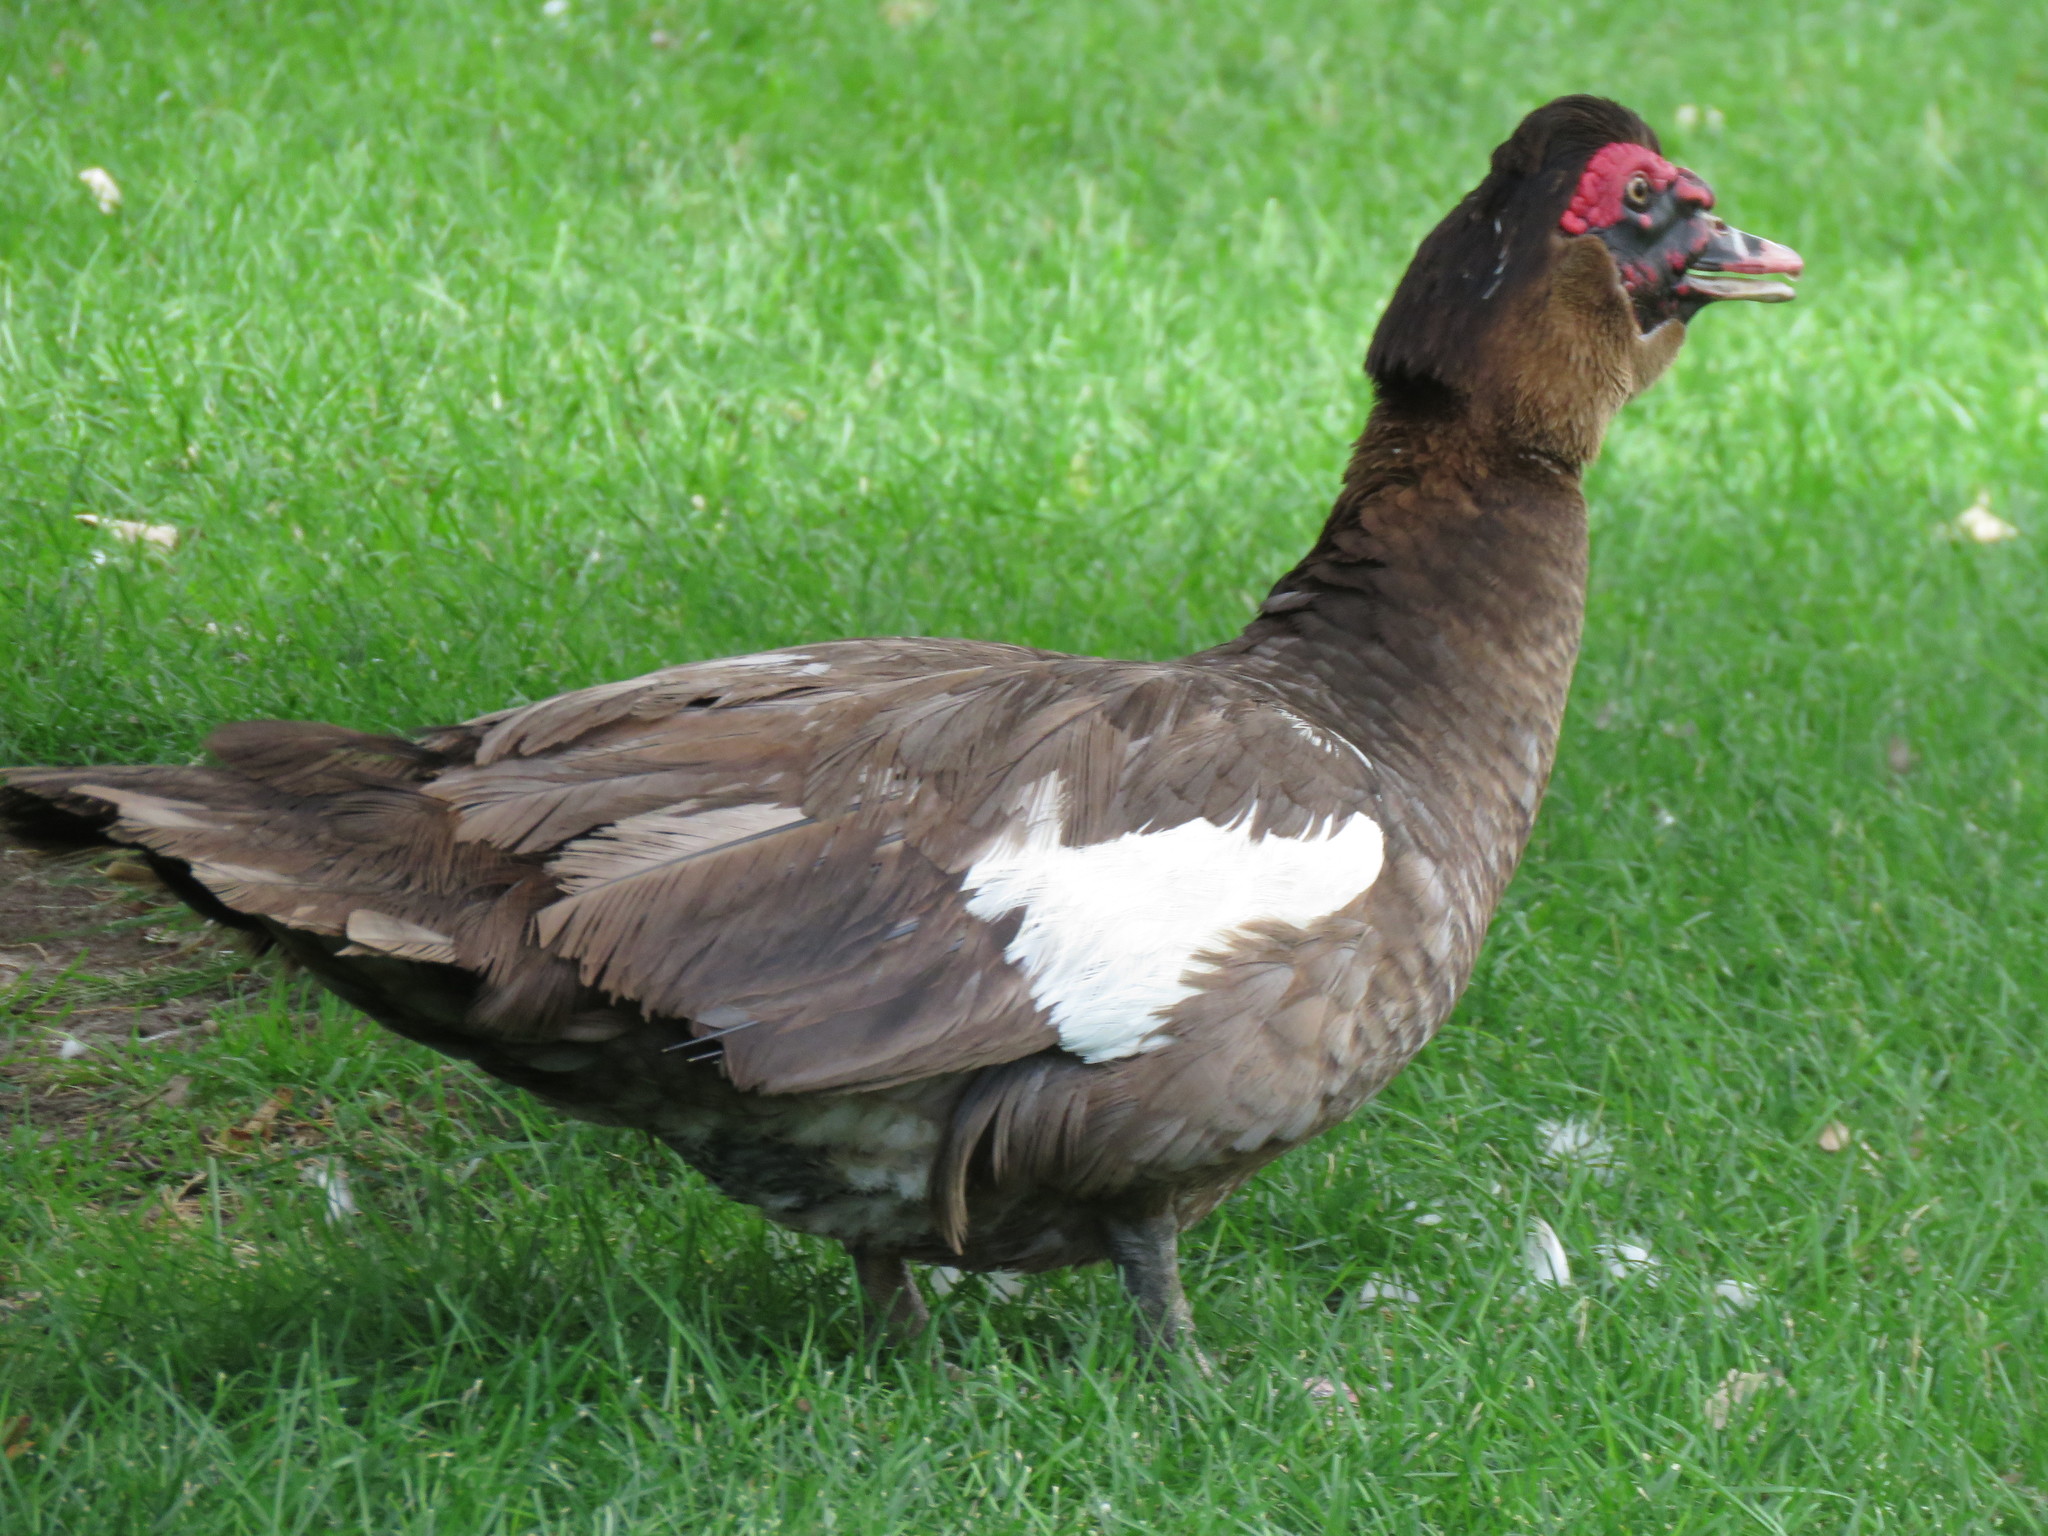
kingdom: Animalia
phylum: Chordata
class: Aves
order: Anseriformes
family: Anatidae
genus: Cairina
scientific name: Cairina moschata
